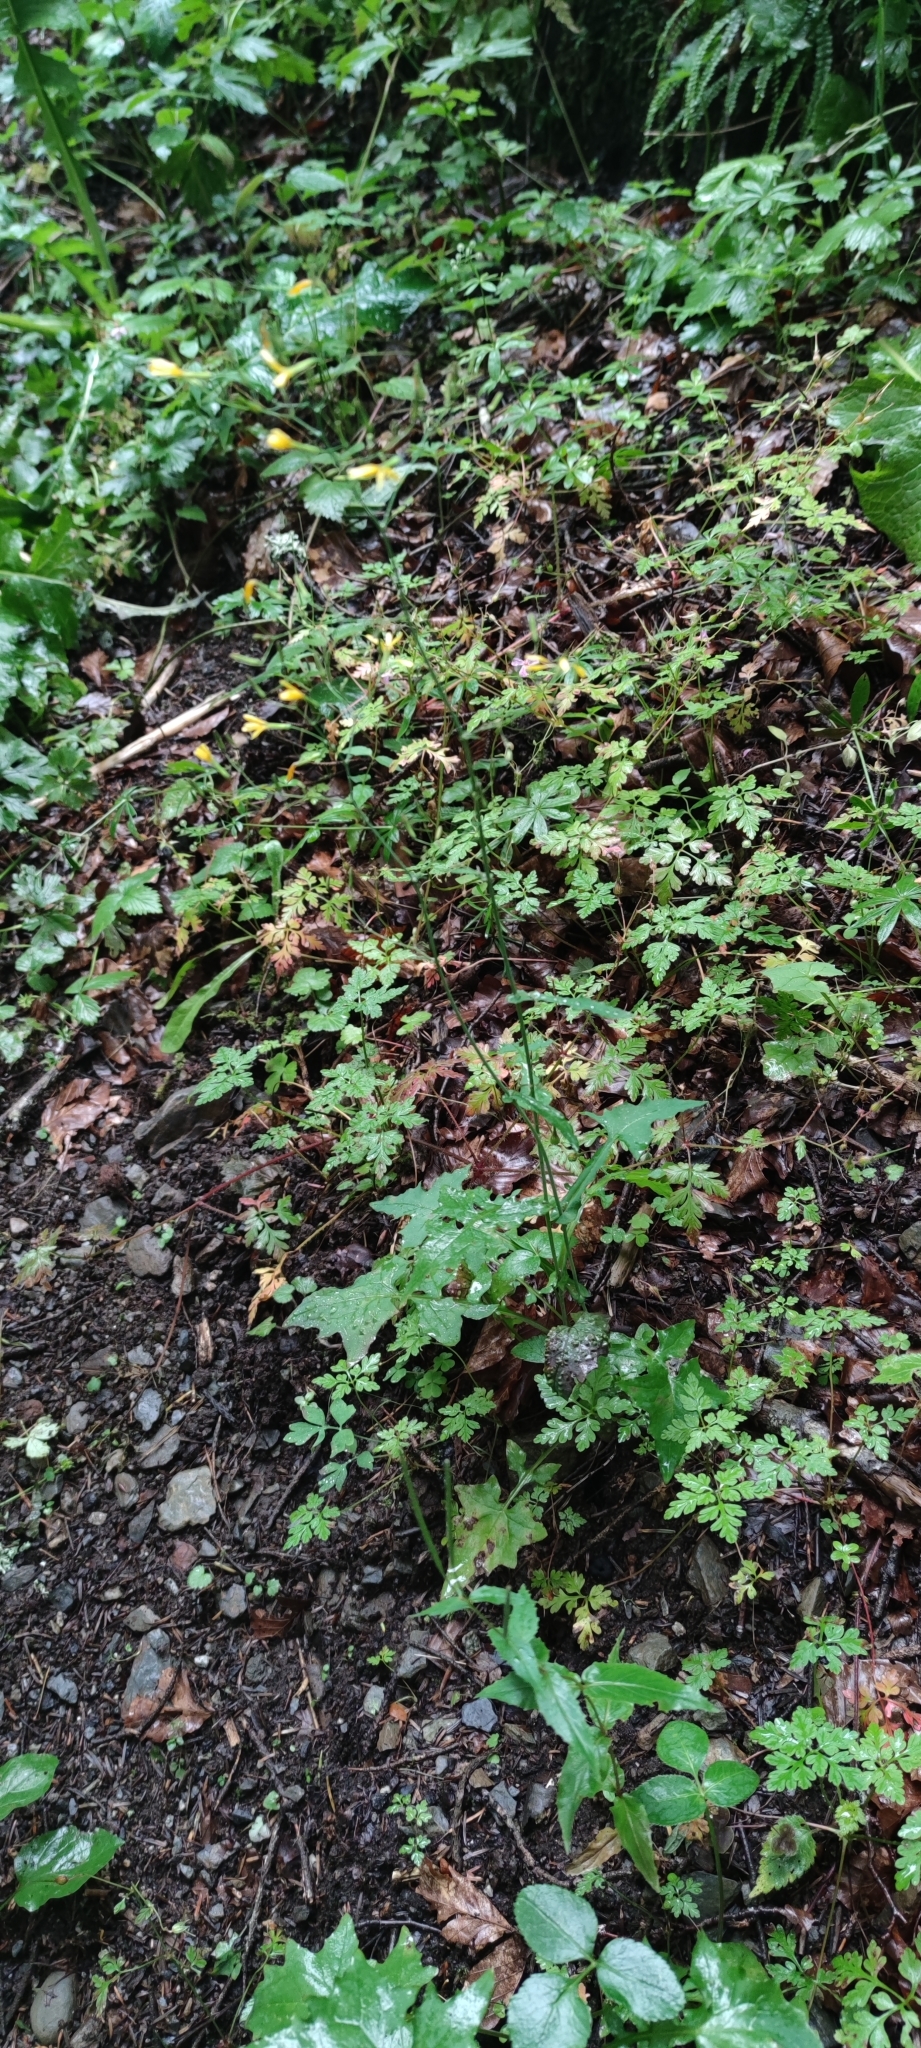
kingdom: Plantae
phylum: Tracheophyta
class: Magnoliopsida
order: Asterales
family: Asteraceae
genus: Mycelis
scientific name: Mycelis muralis
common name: Wall lettuce
